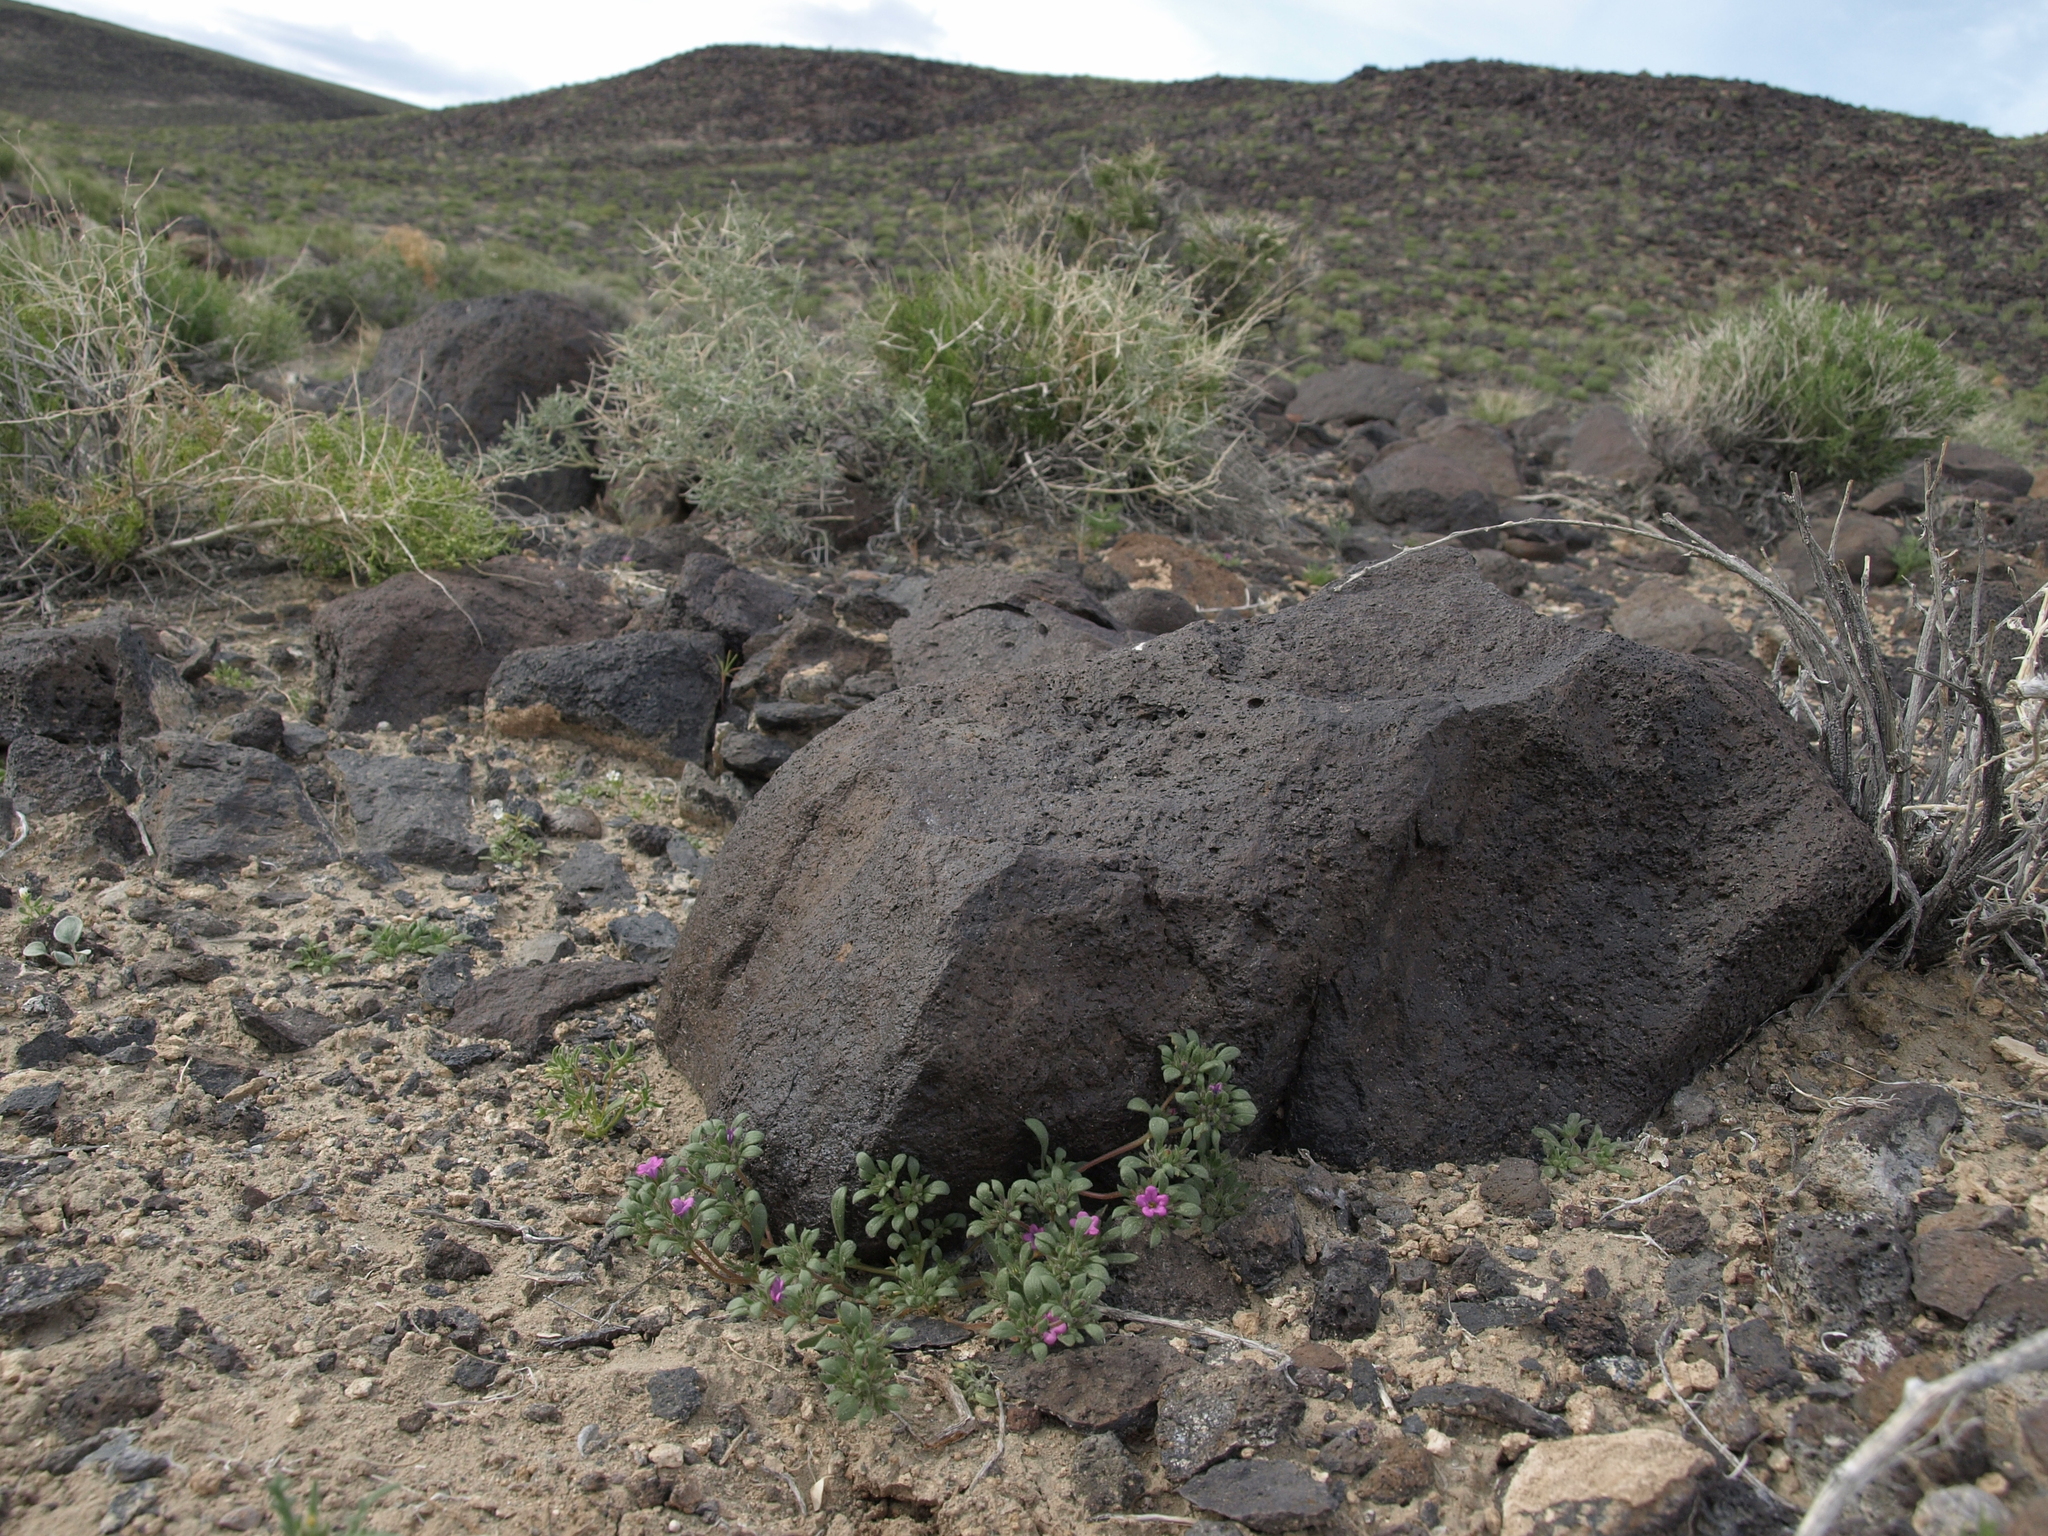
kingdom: Plantae
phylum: Tracheophyta
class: Magnoliopsida
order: Boraginales
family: Namaceae
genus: Nama
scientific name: Nama demissa
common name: Leafy nama
